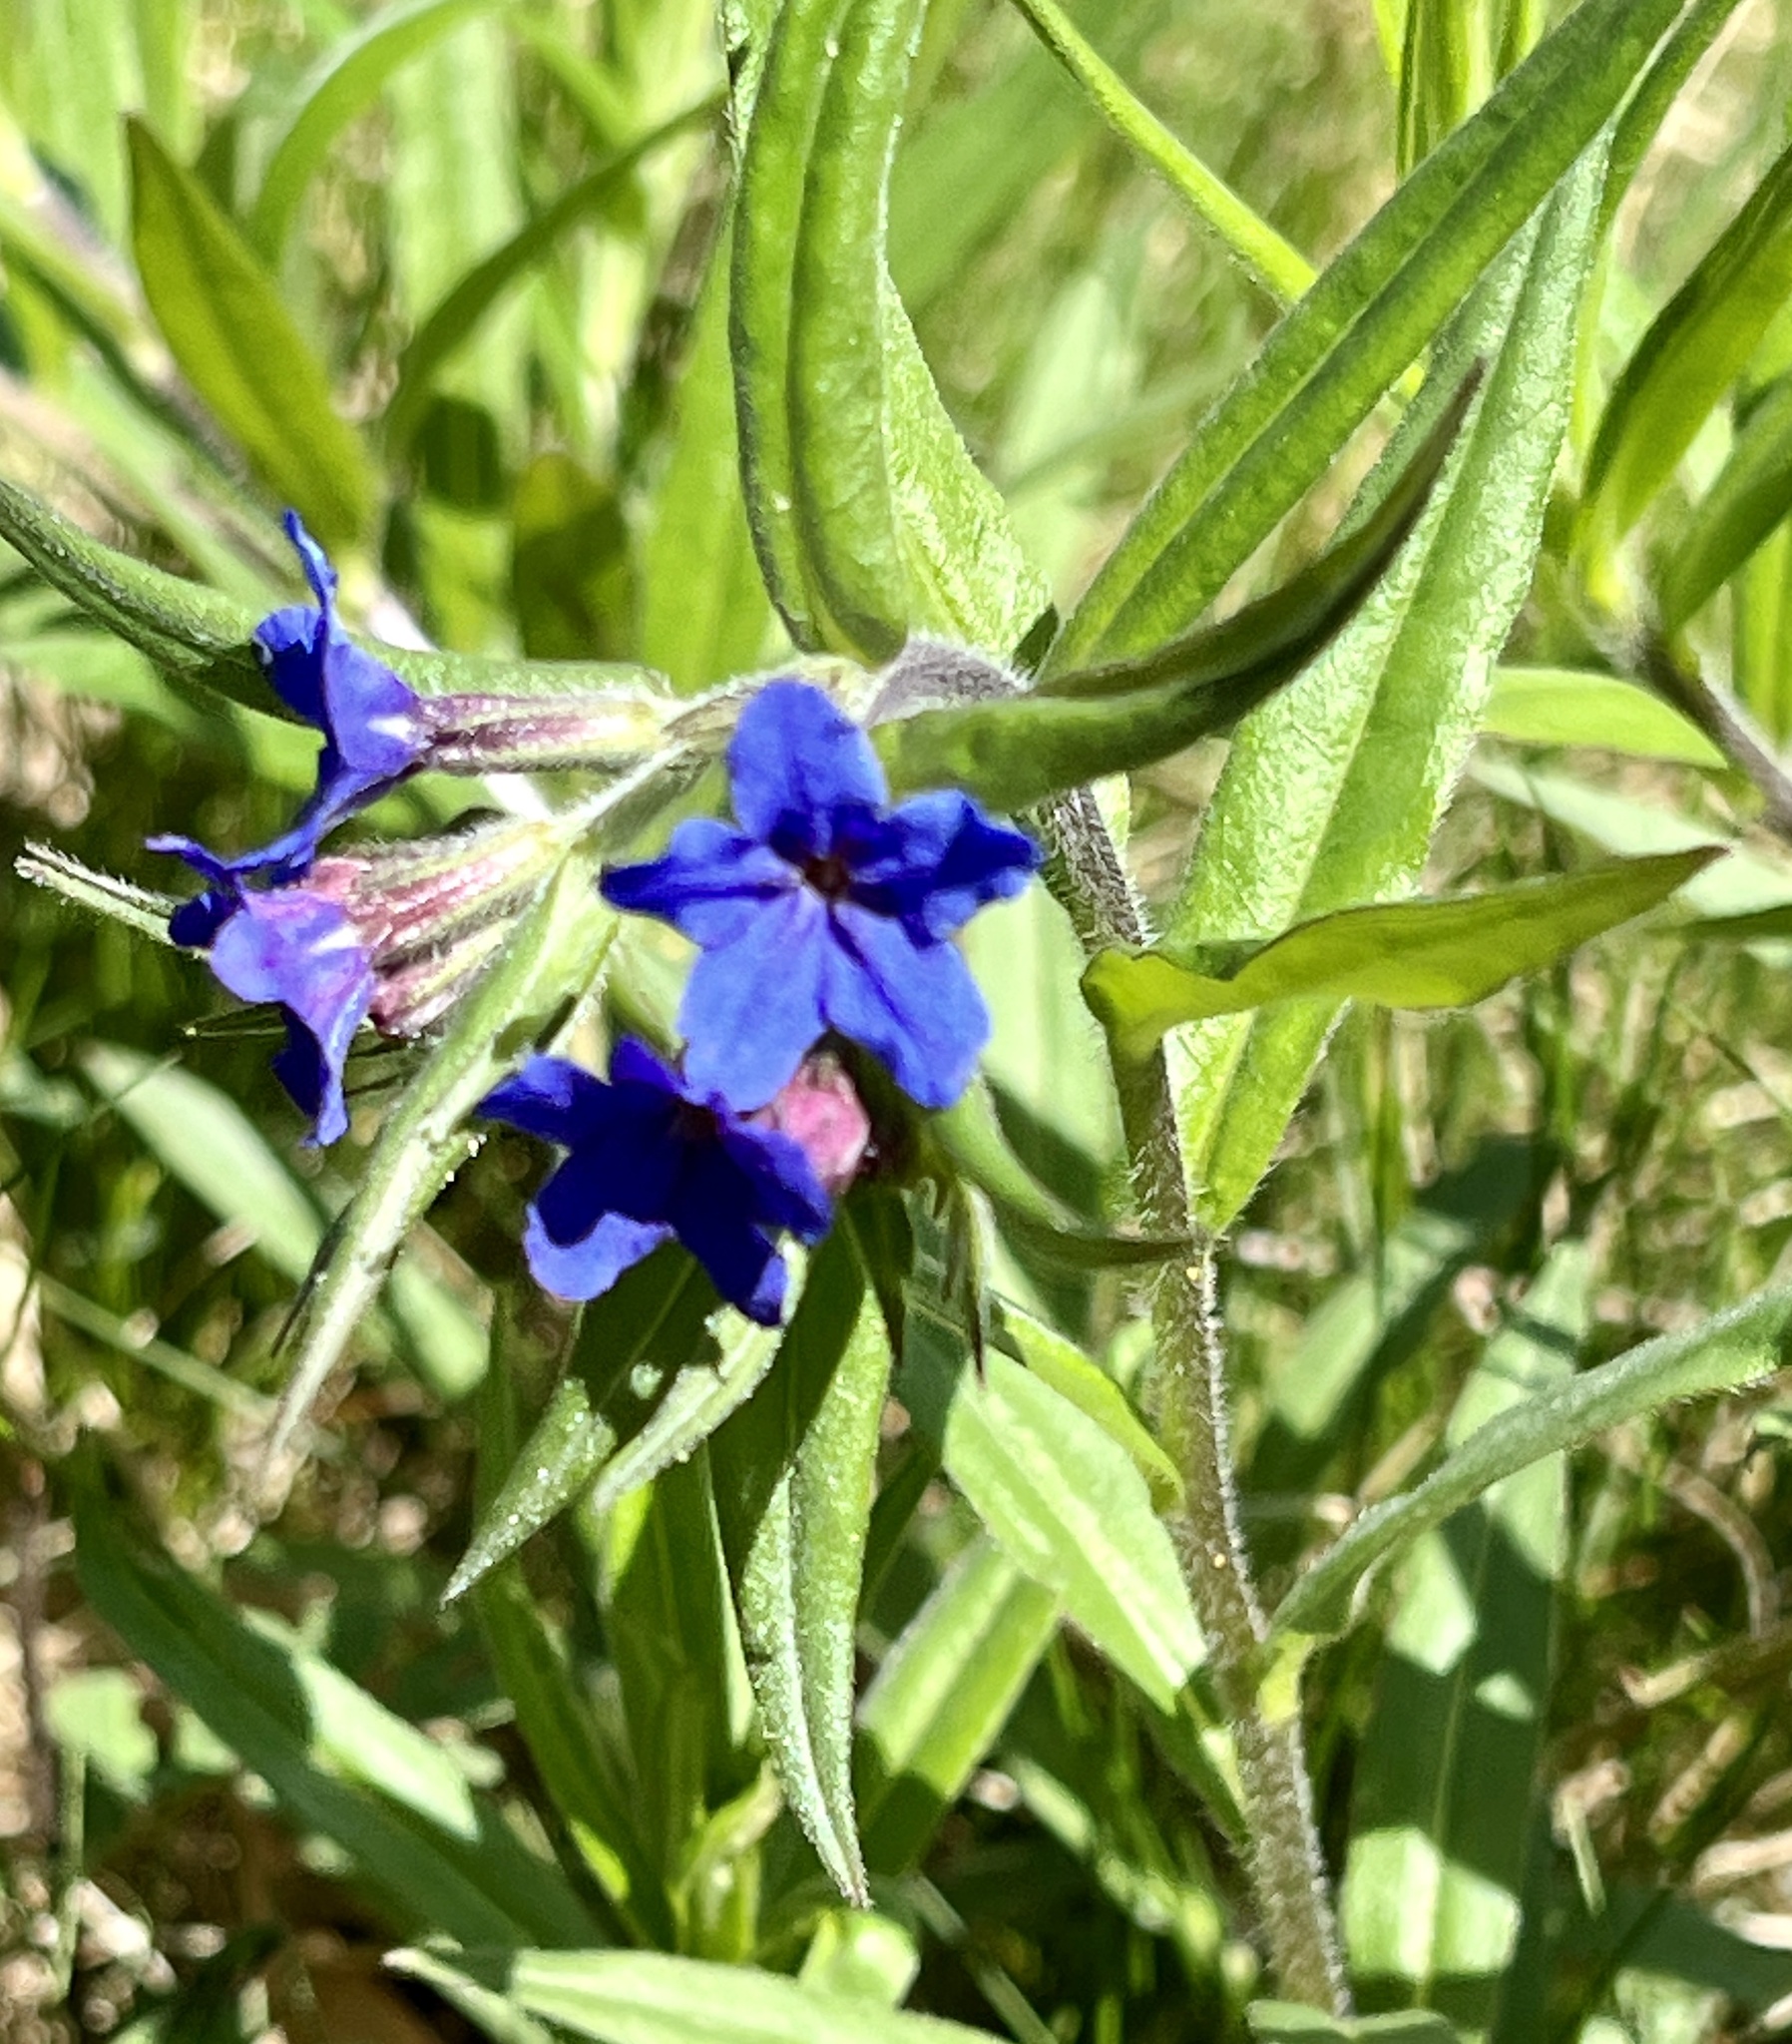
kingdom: Plantae
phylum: Tracheophyta
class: Magnoliopsida
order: Boraginales
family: Boraginaceae
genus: Aegonychon
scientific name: Aegonychon purpurocaeruleum
